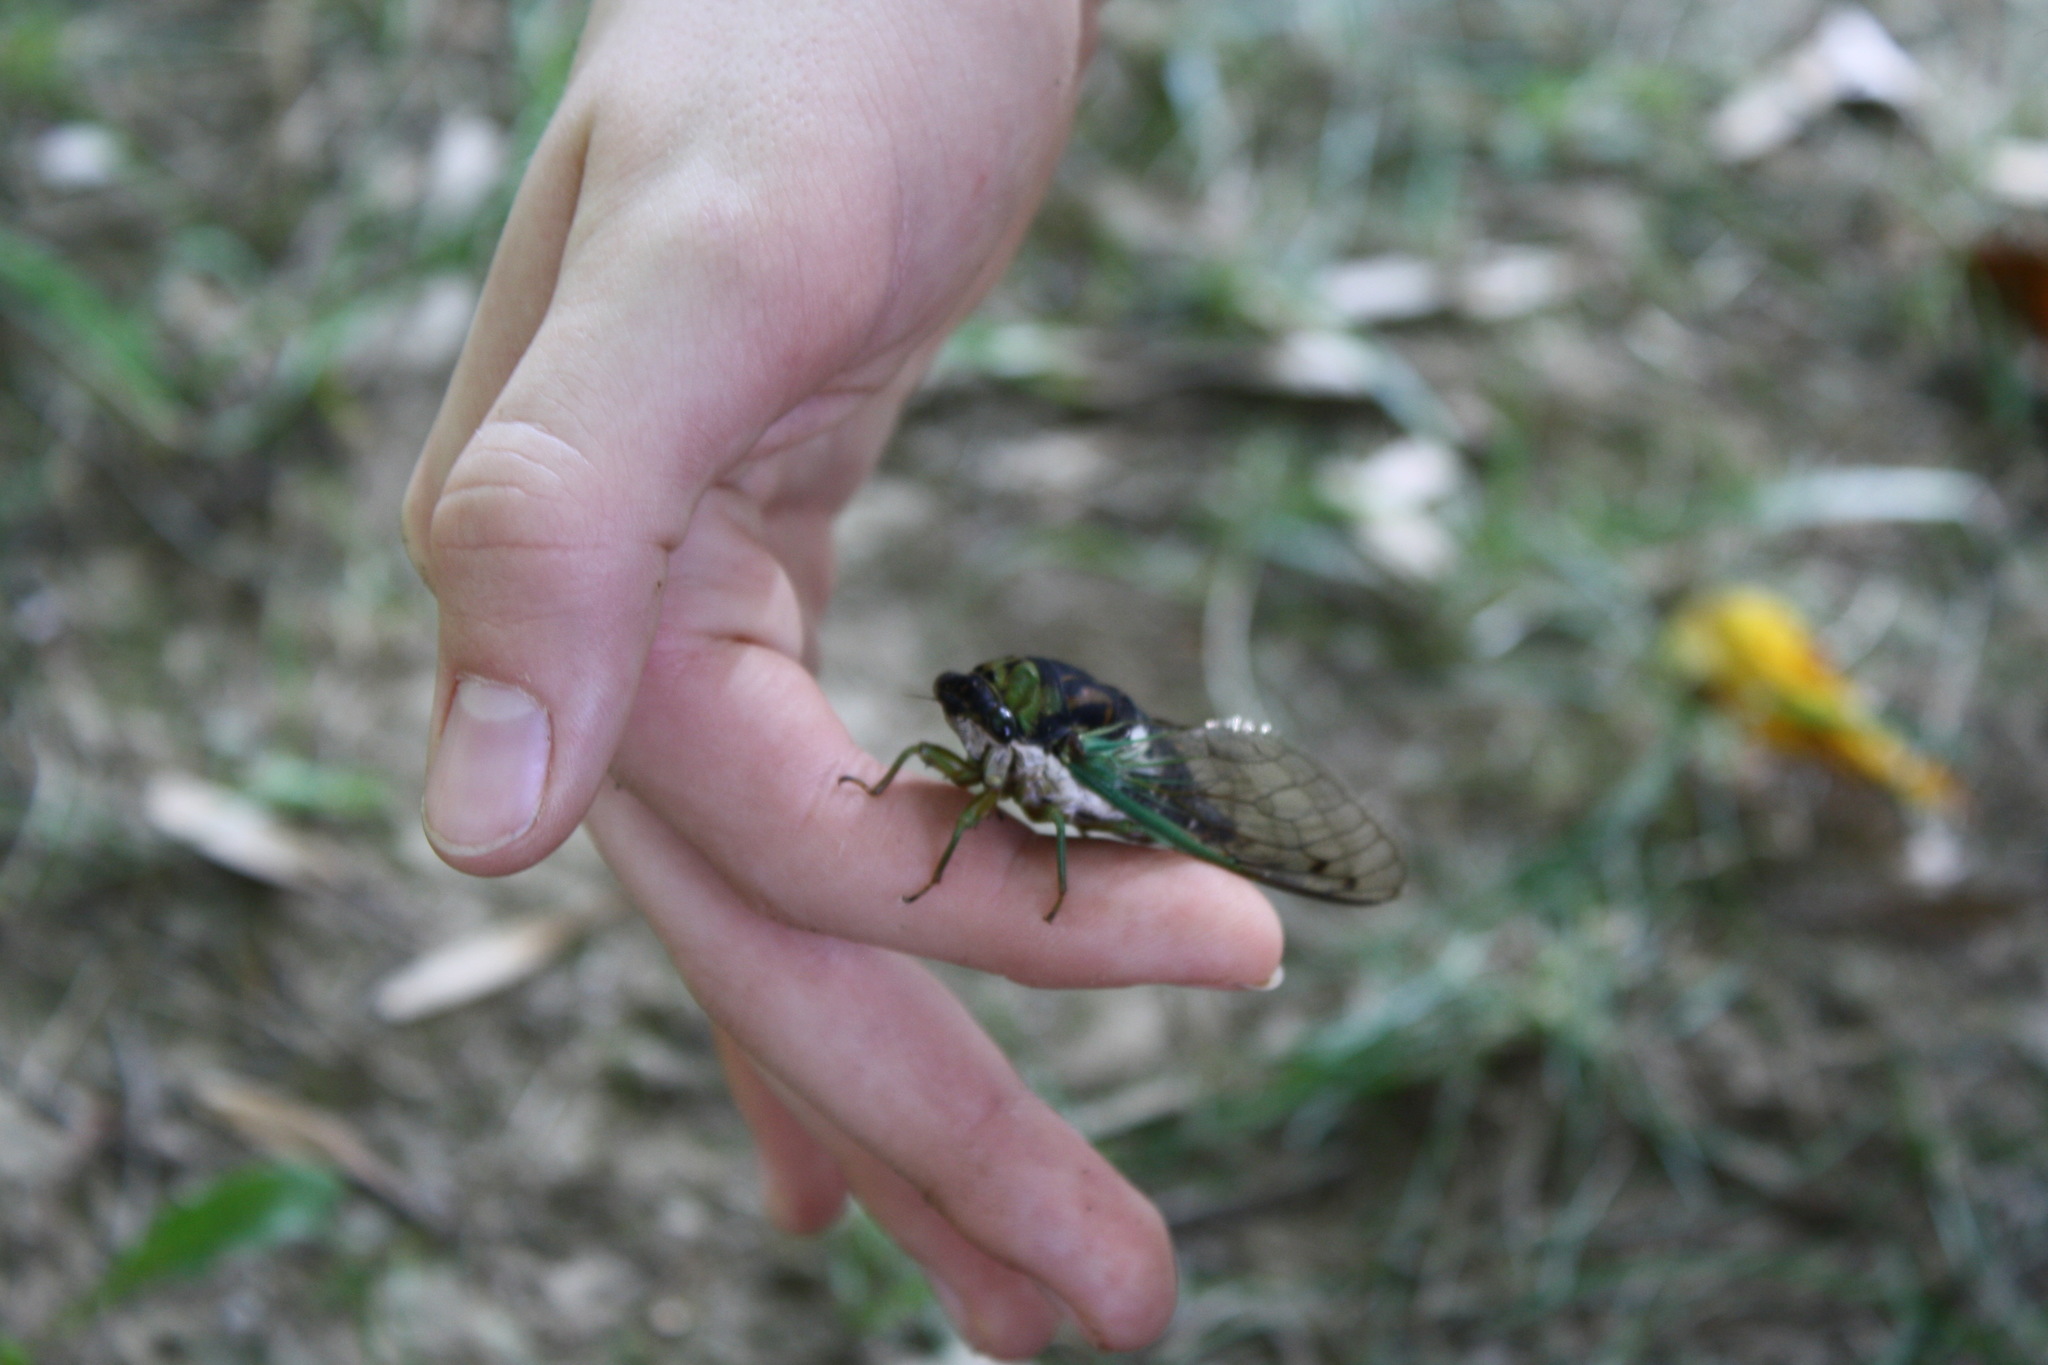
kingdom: Animalia
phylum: Arthropoda
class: Insecta
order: Hemiptera
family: Cicadidae
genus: Neotibicen
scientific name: Neotibicen tibicen
